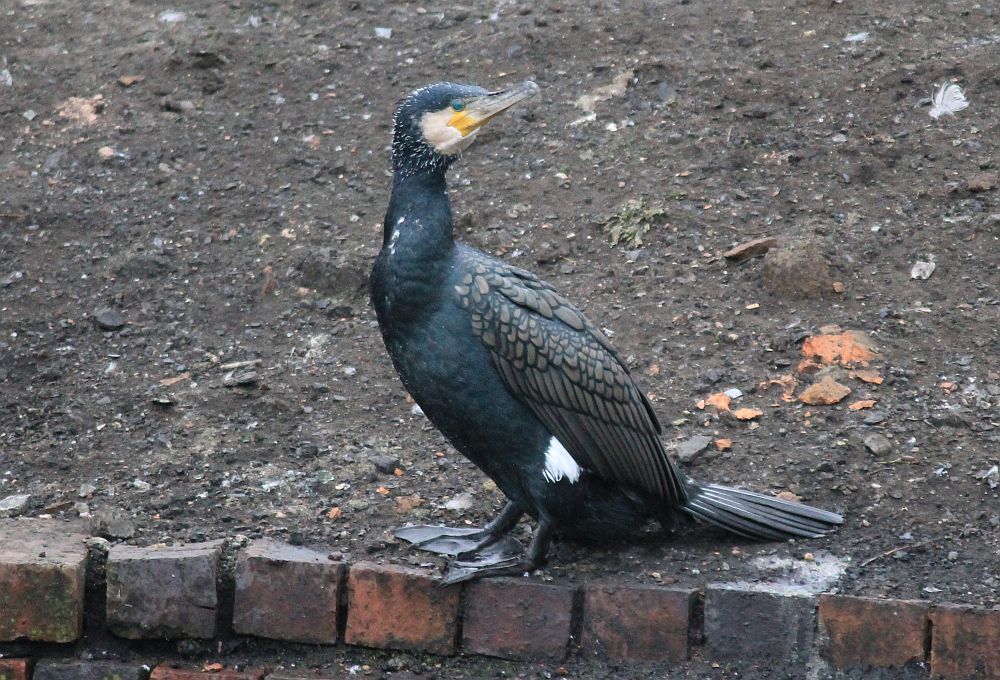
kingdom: Animalia
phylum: Chordata
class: Aves
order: Suliformes
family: Phalacrocoracidae
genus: Phalacrocorax
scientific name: Phalacrocorax carbo
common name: Great cormorant
